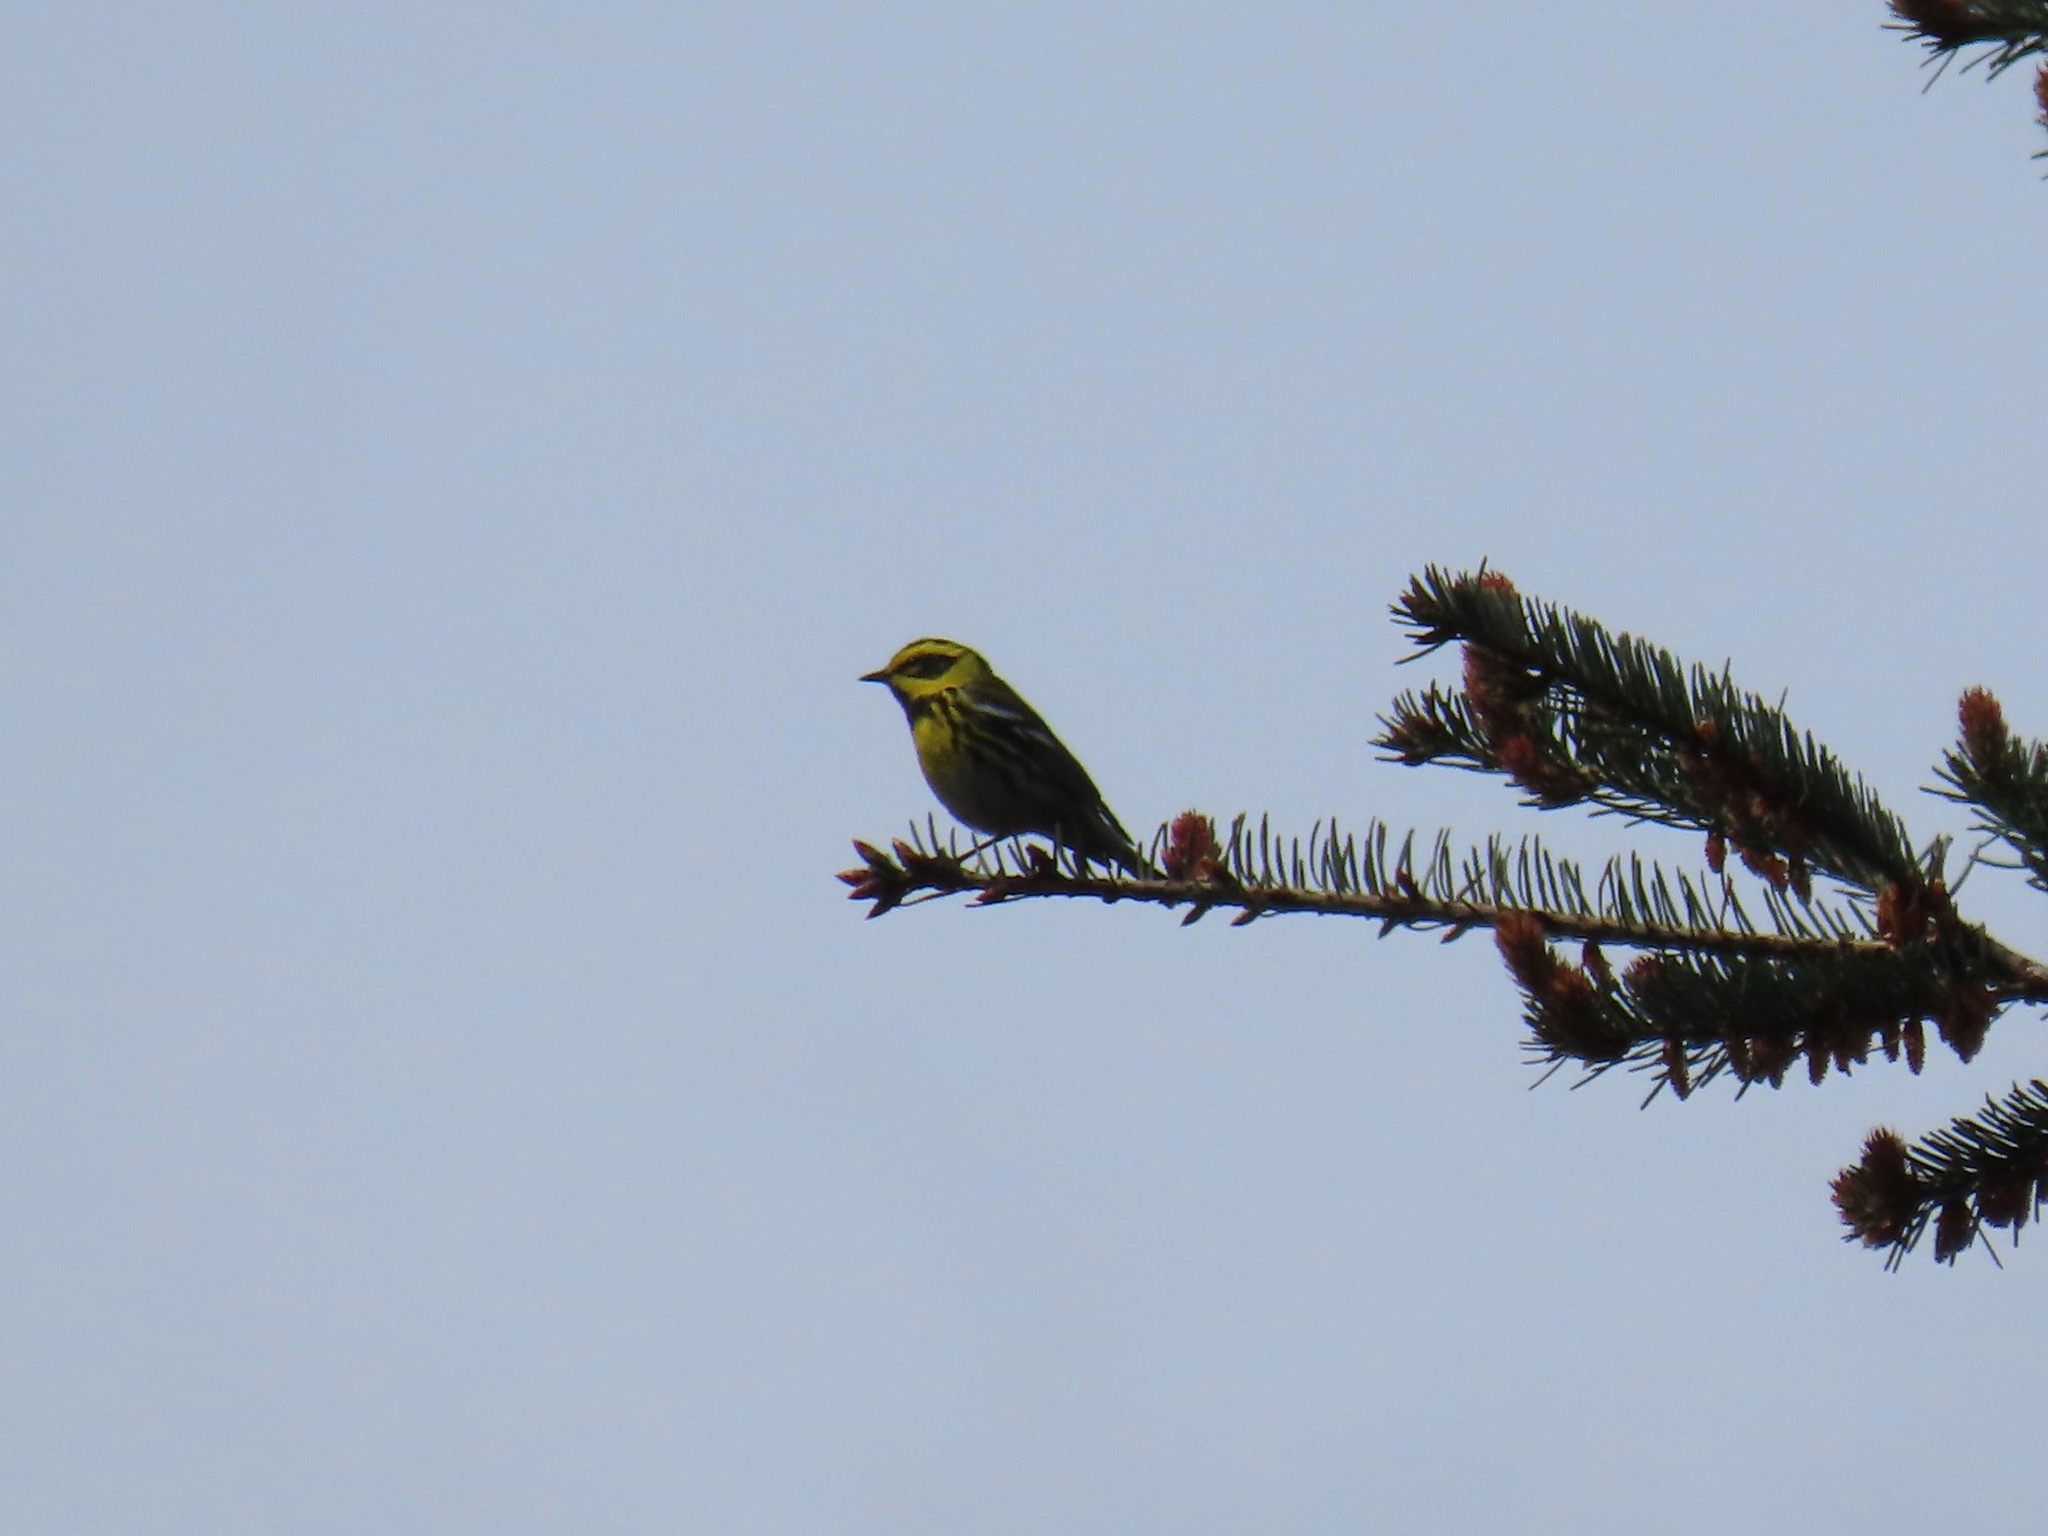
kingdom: Animalia
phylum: Chordata
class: Aves
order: Passeriformes
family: Parulidae
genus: Setophaga
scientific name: Setophaga townsendi
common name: Townsend's warbler
